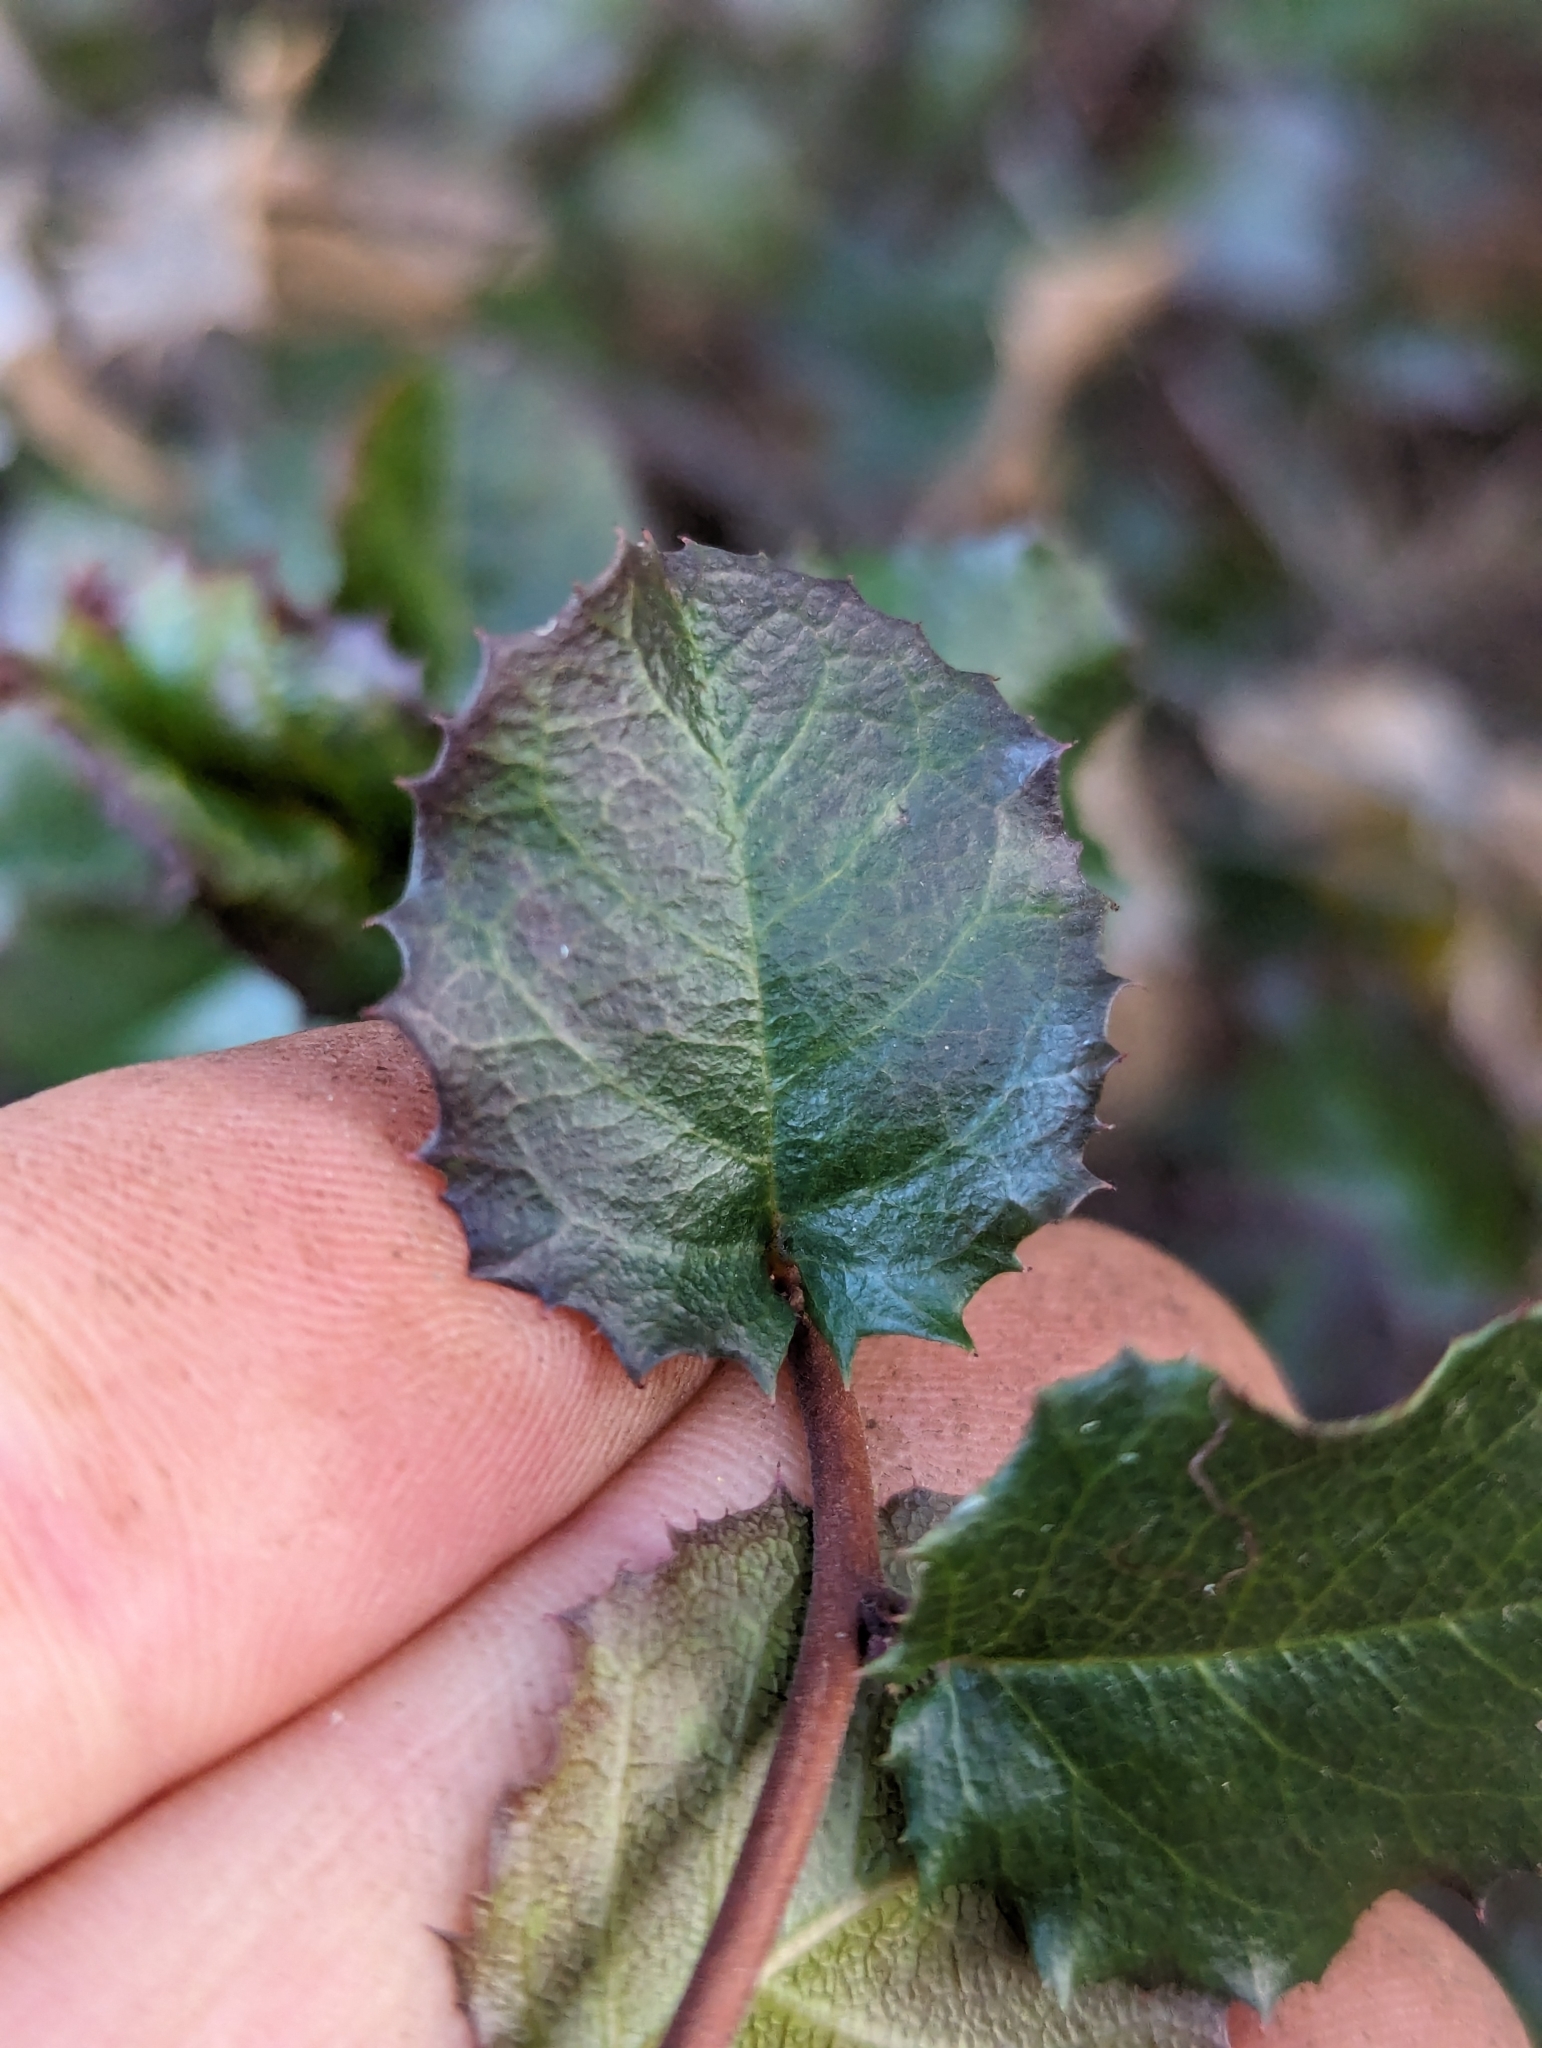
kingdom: Plantae
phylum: Tracheophyta
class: Magnoliopsida
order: Rosales
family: Rhamnaceae
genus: Endotropis
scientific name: Endotropis crocea
